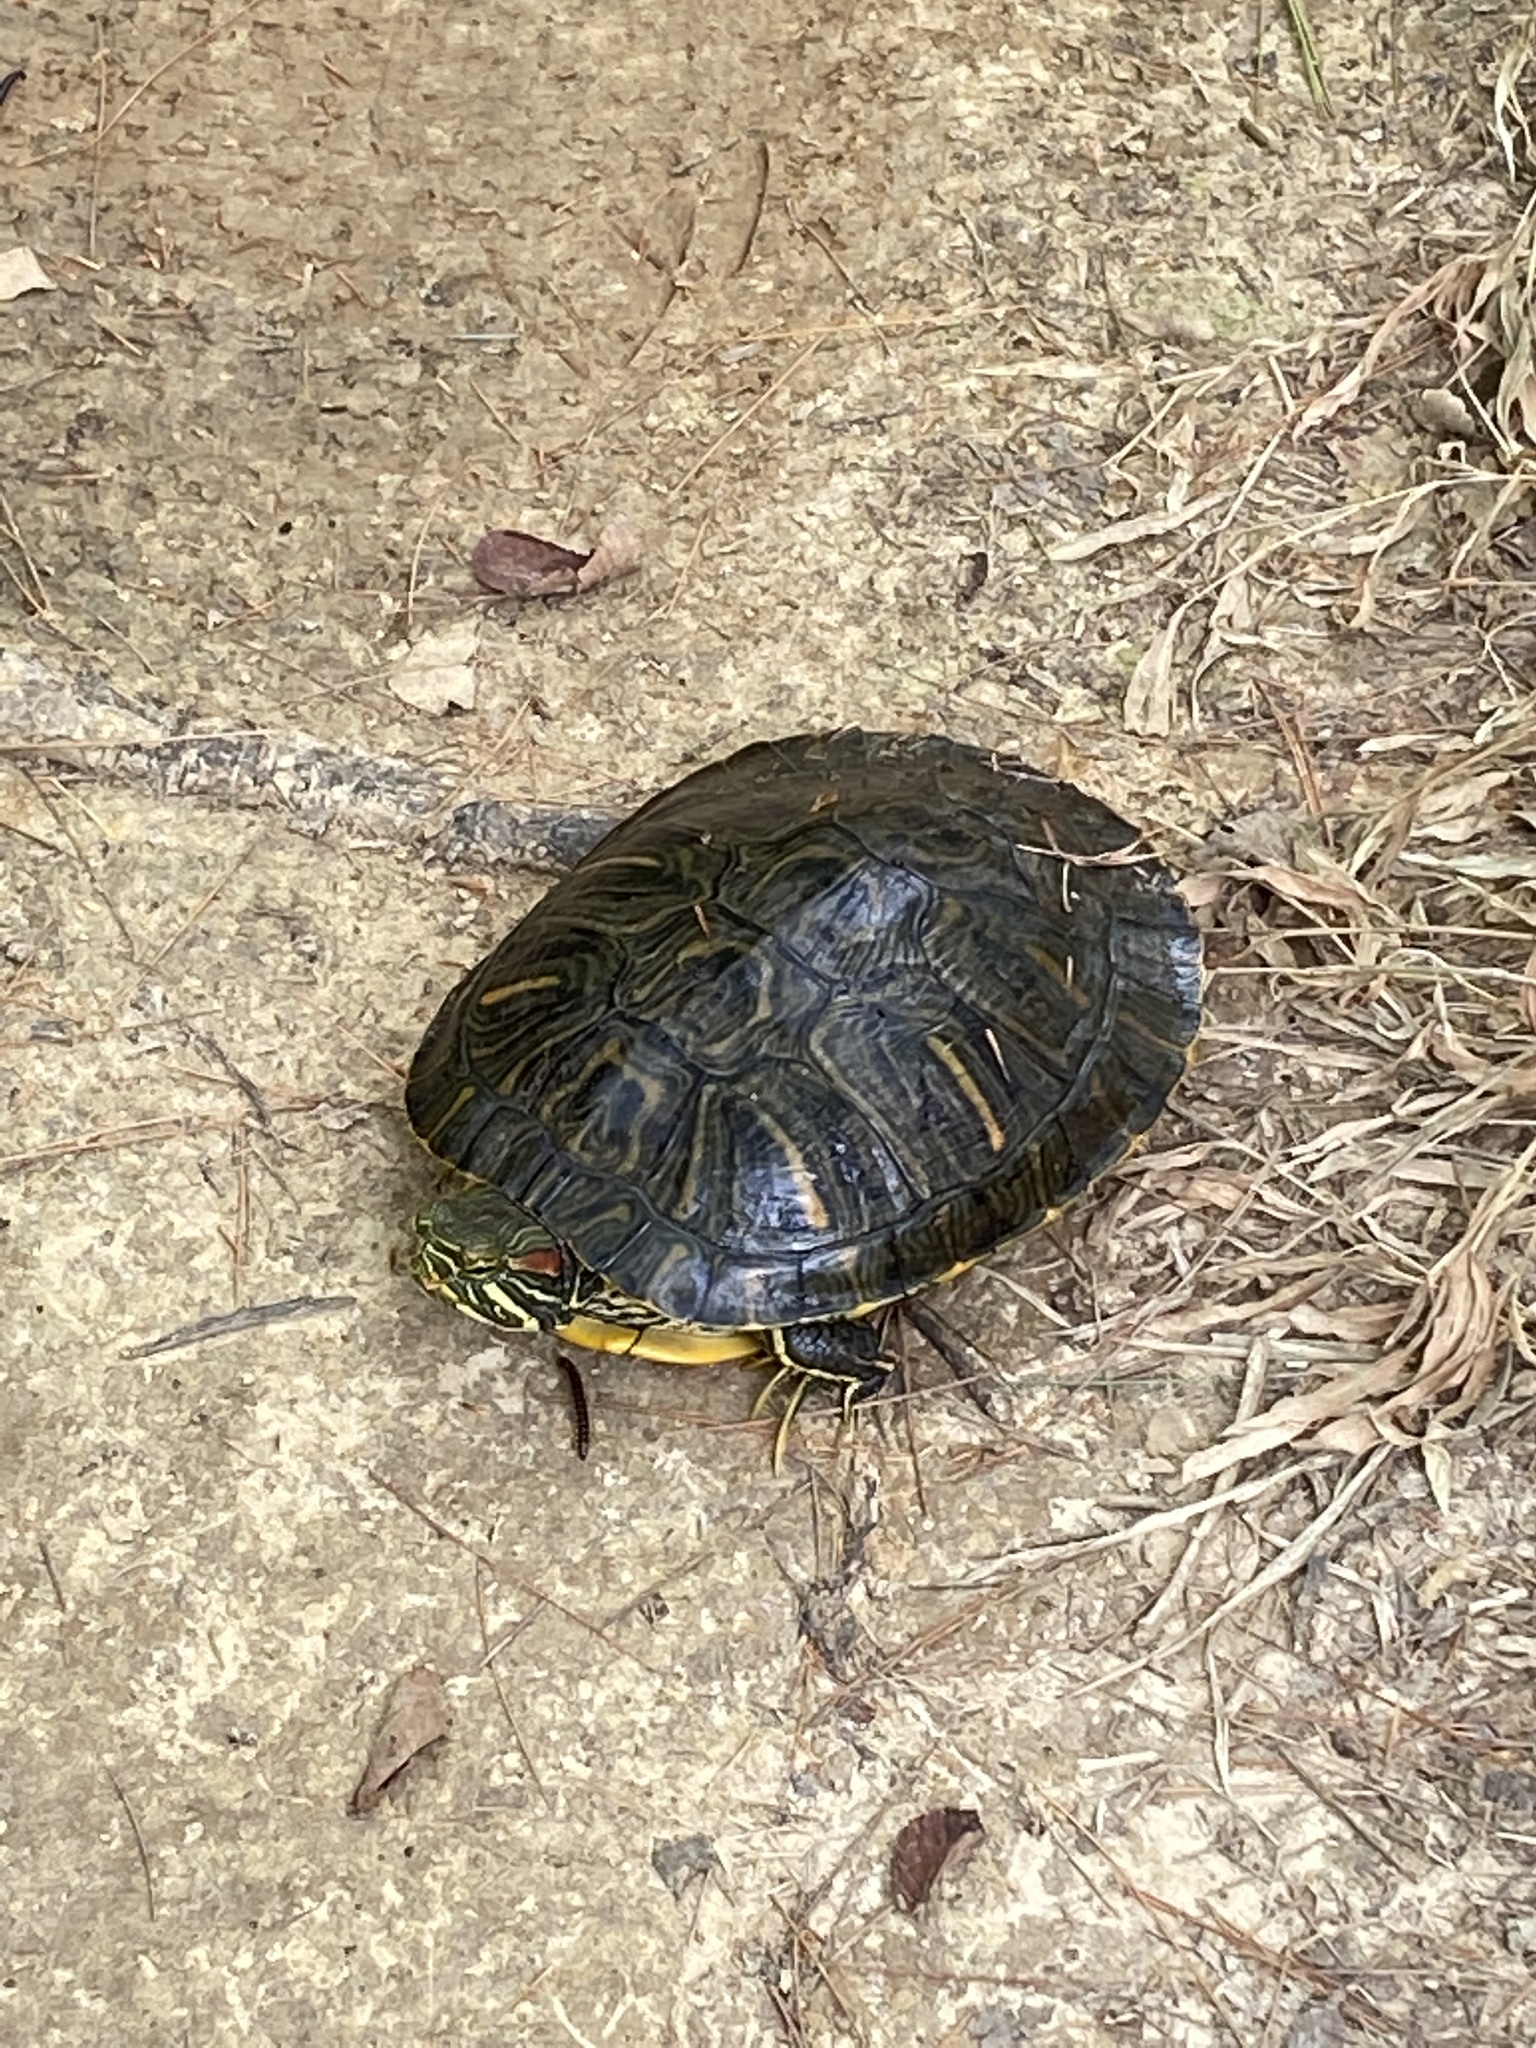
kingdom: Animalia
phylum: Chordata
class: Testudines
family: Emydidae
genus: Trachemys
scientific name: Trachemys scripta
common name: Slider
